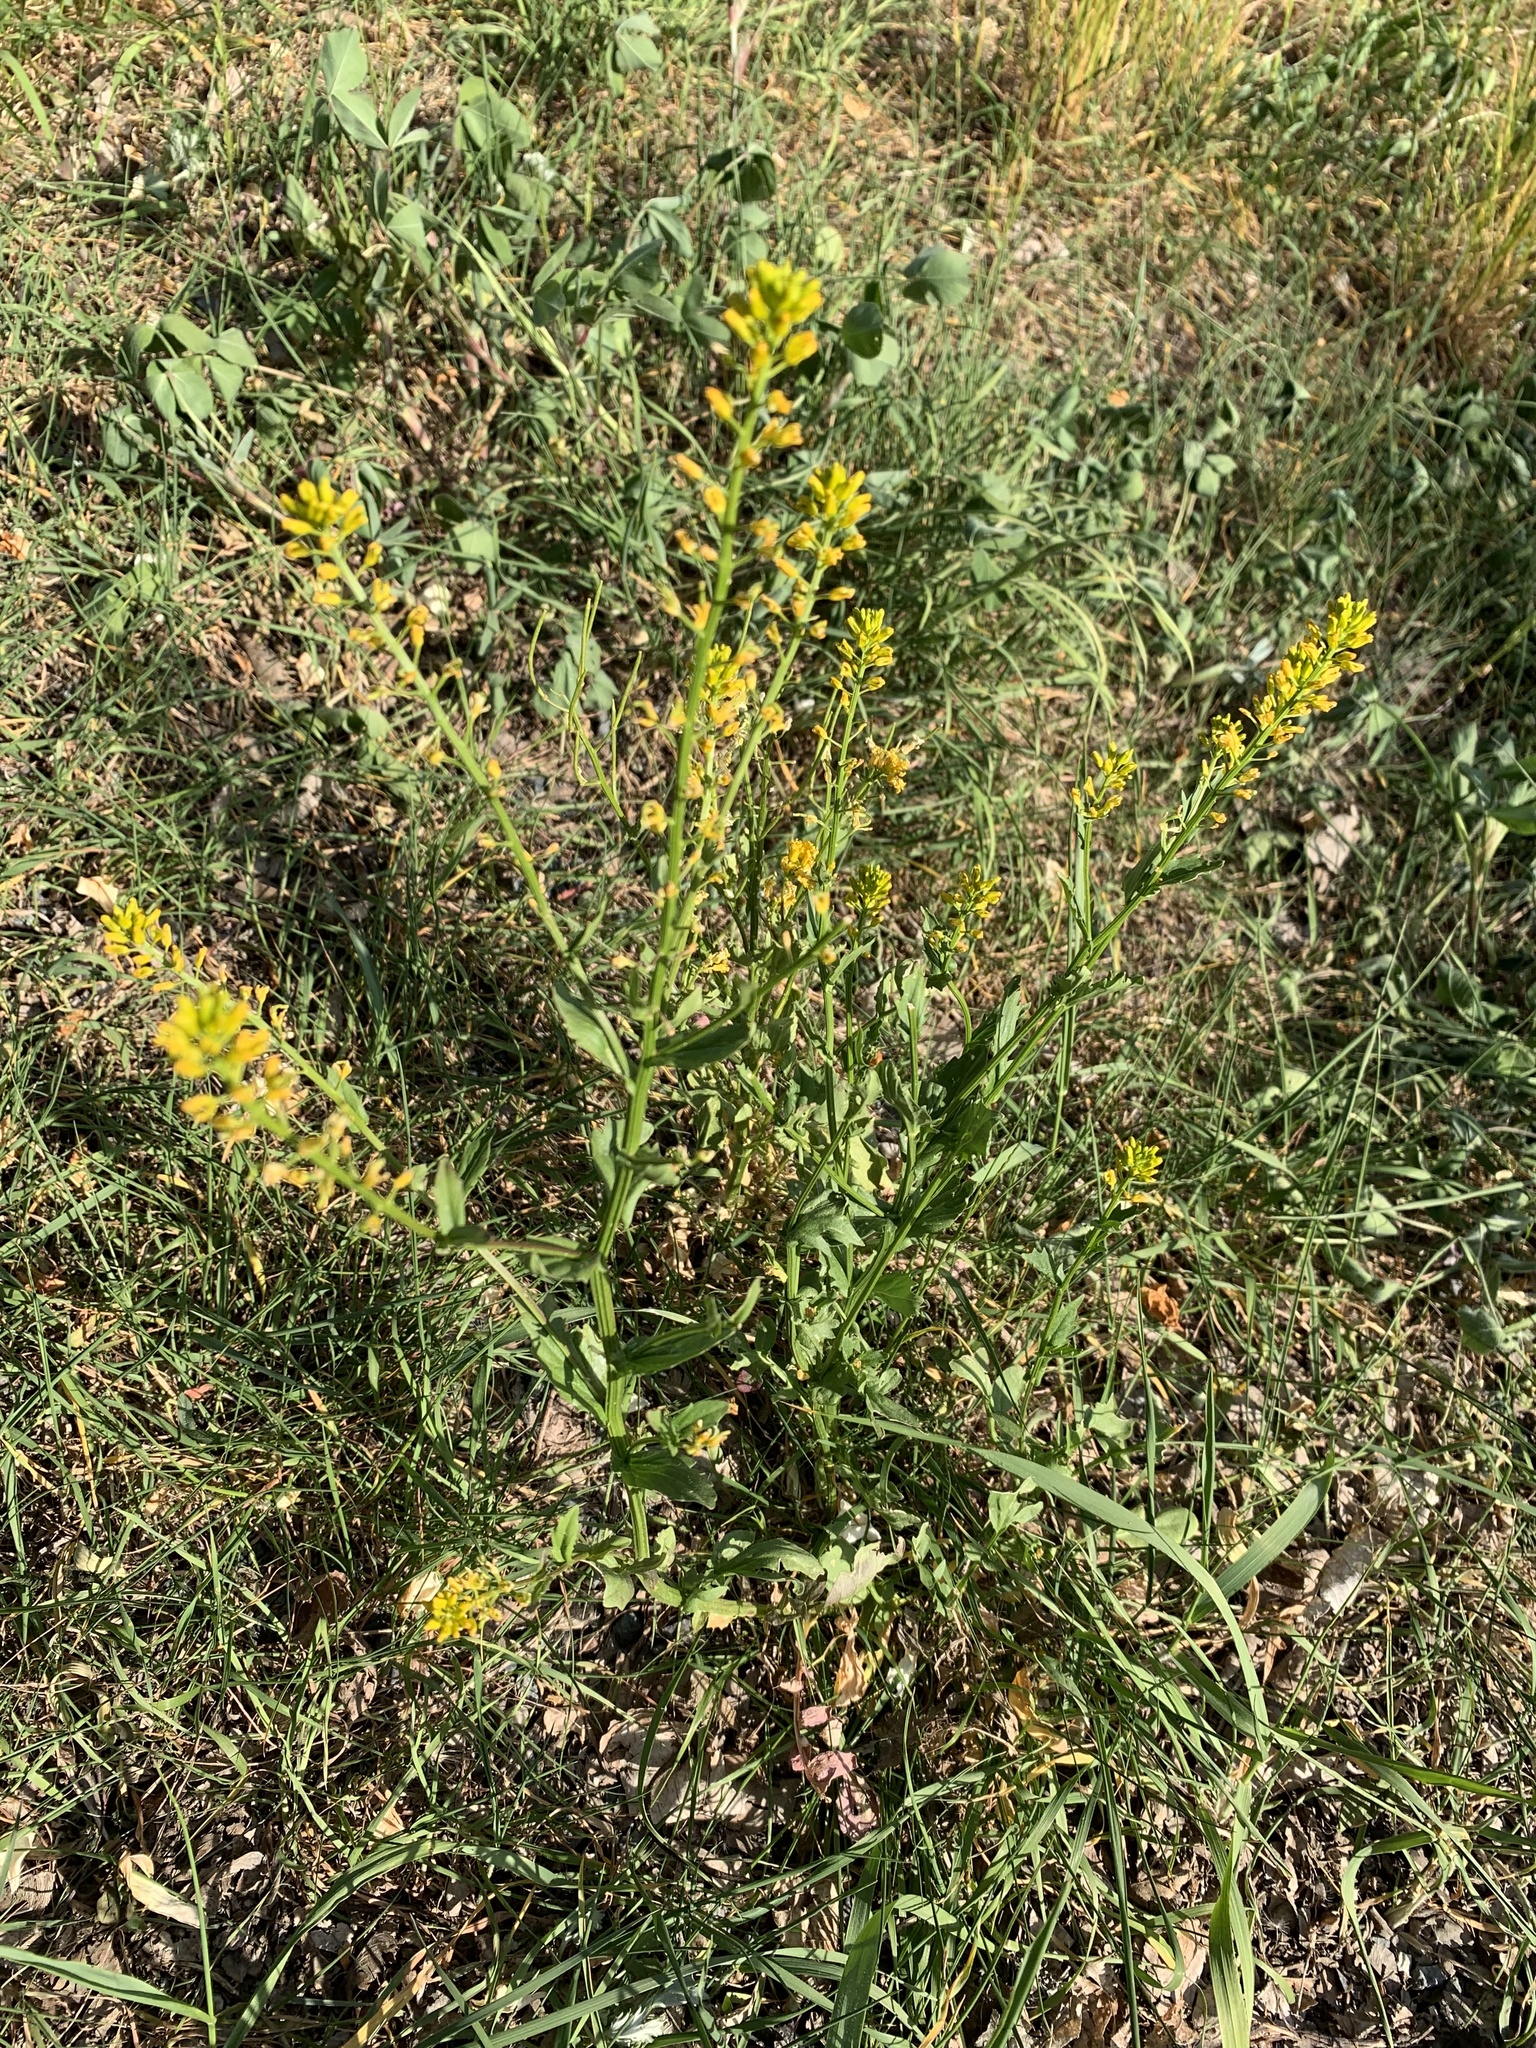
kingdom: Plantae
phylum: Tracheophyta
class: Magnoliopsida
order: Brassicales
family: Brassicaceae
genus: Barbarea
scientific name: Barbarea vulgaris
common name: Cressy-greens
